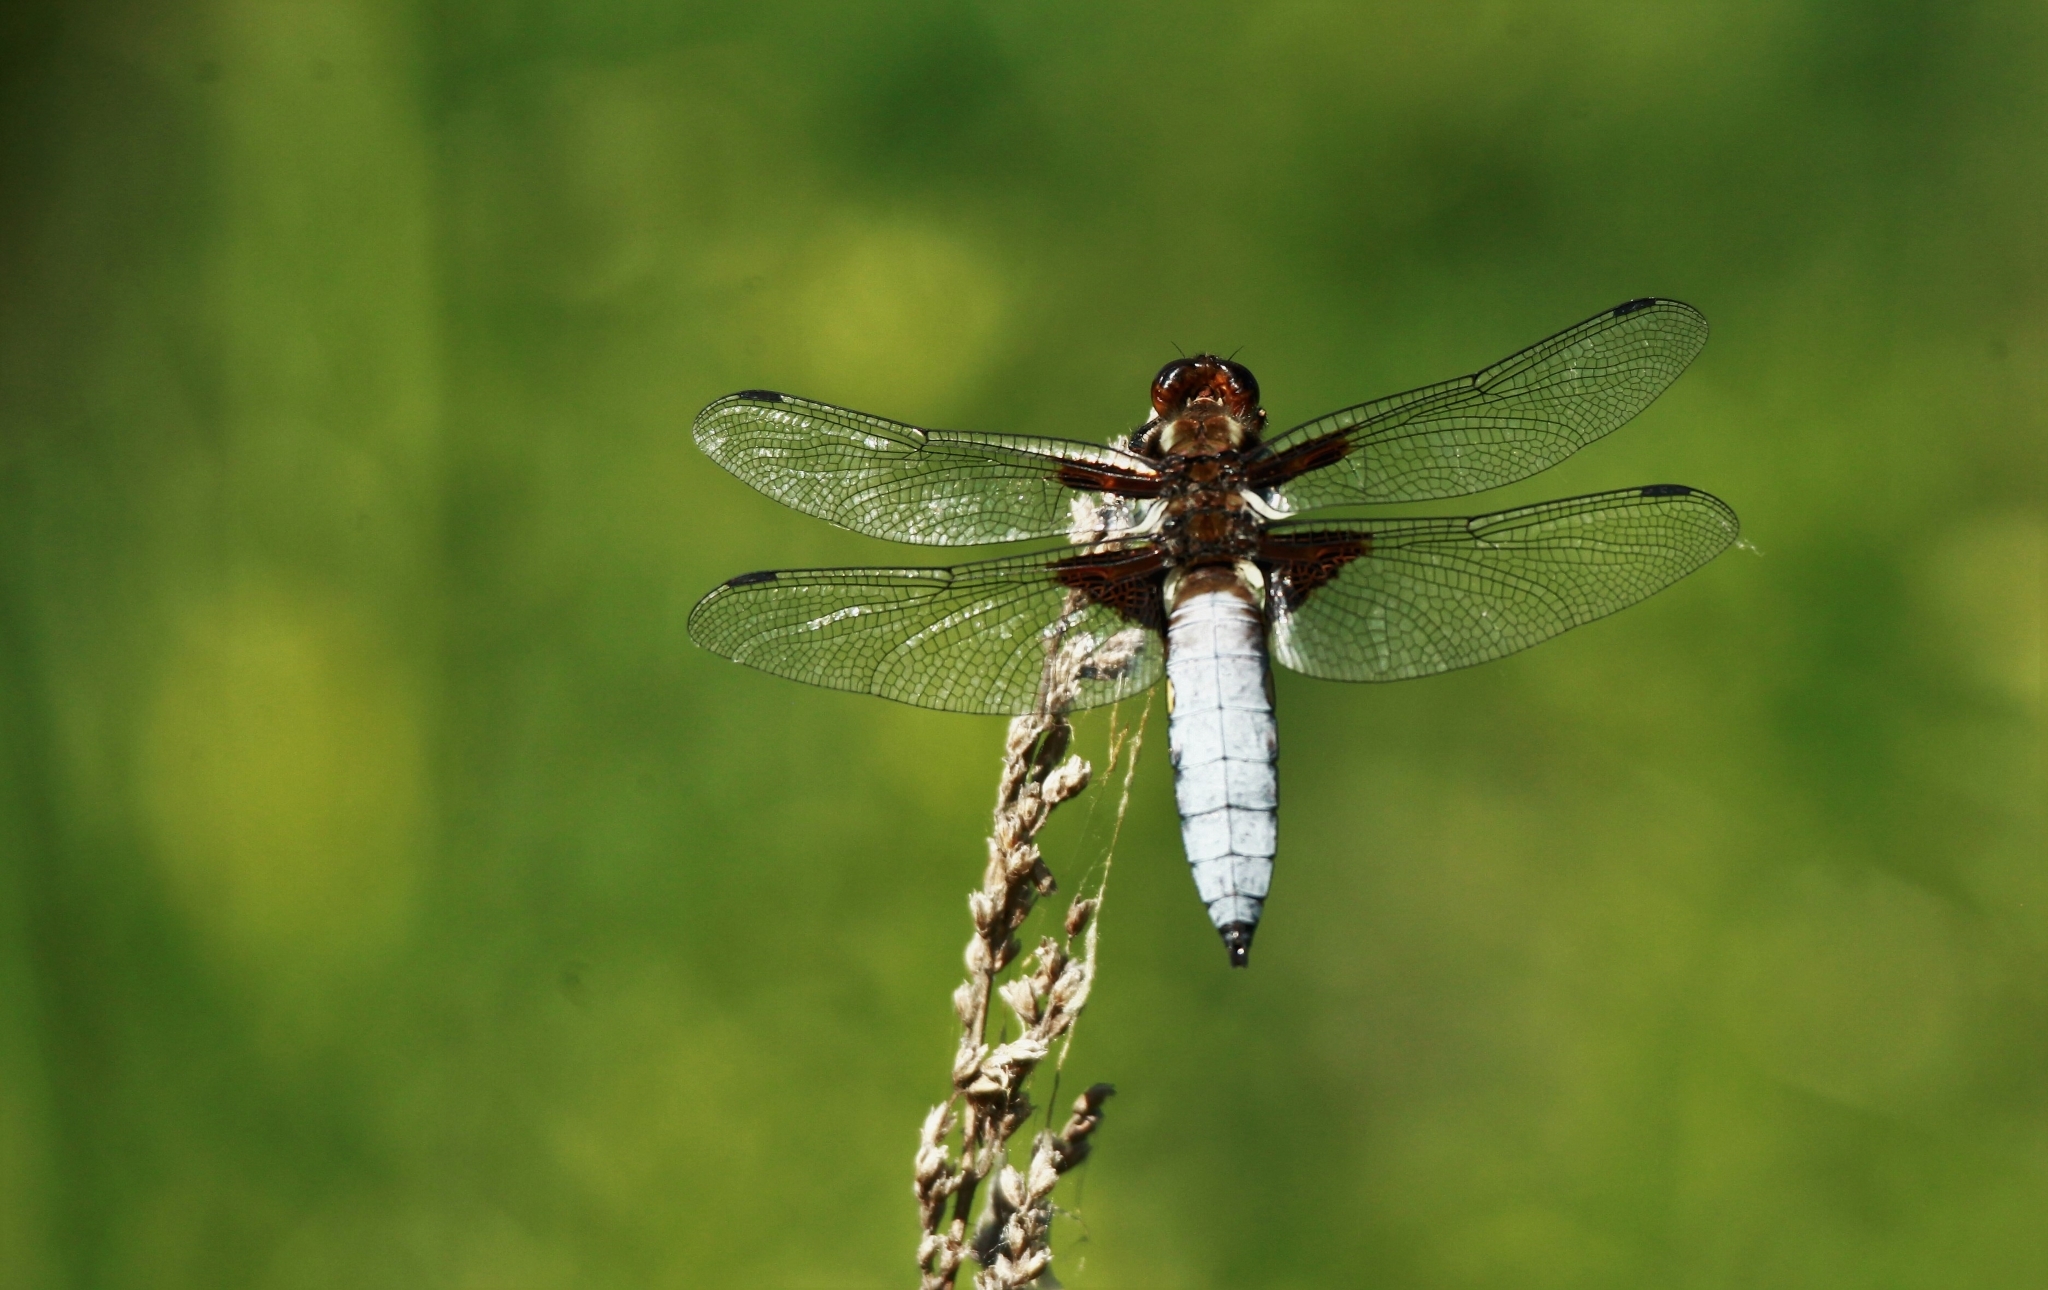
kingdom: Animalia
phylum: Arthropoda
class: Insecta
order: Odonata
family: Libellulidae
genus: Libellula
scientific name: Libellula depressa
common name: Broad-bodied chaser
